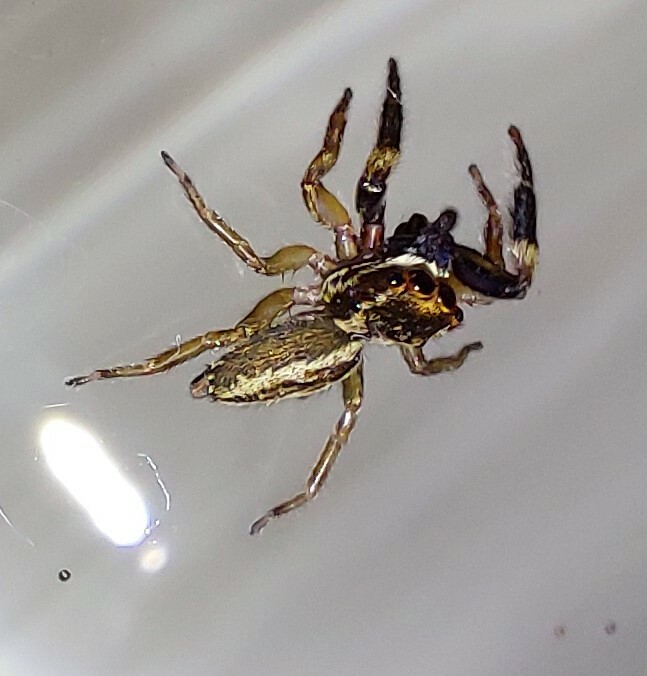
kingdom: Animalia
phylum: Arthropoda
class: Arachnida
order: Araneae
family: Salticidae
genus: Trite
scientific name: Trite auricoma
